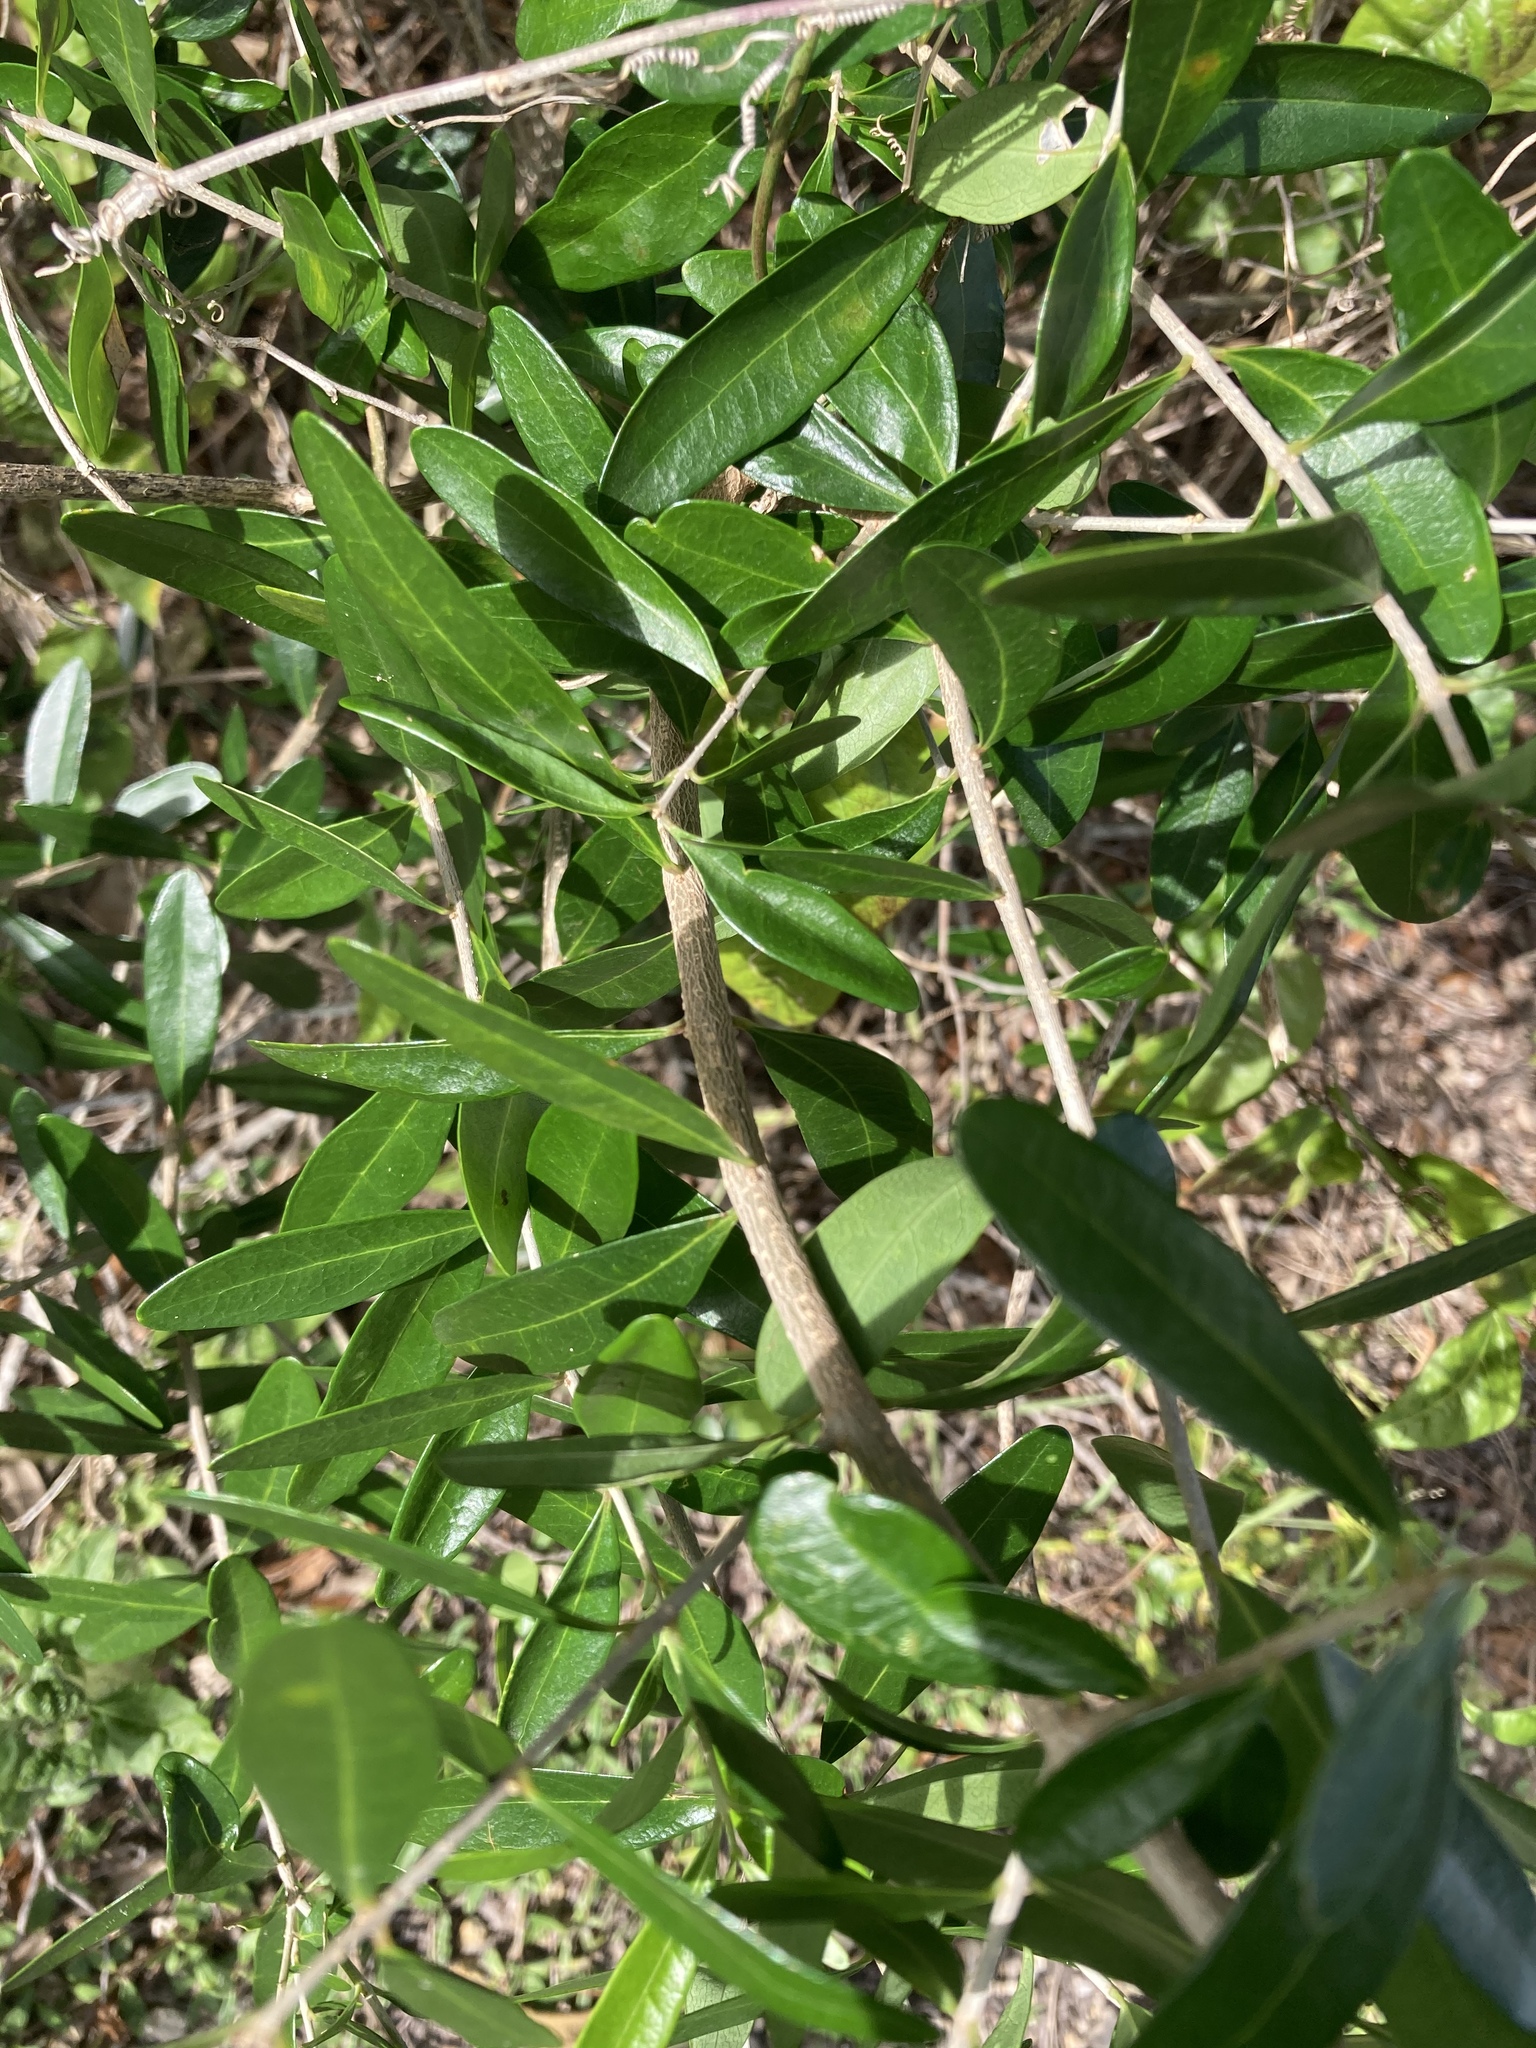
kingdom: Plantae
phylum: Tracheophyta
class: Magnoliopsida
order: Lamiales
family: Oleaceae
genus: Forestiera
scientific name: Forestiera segregata
